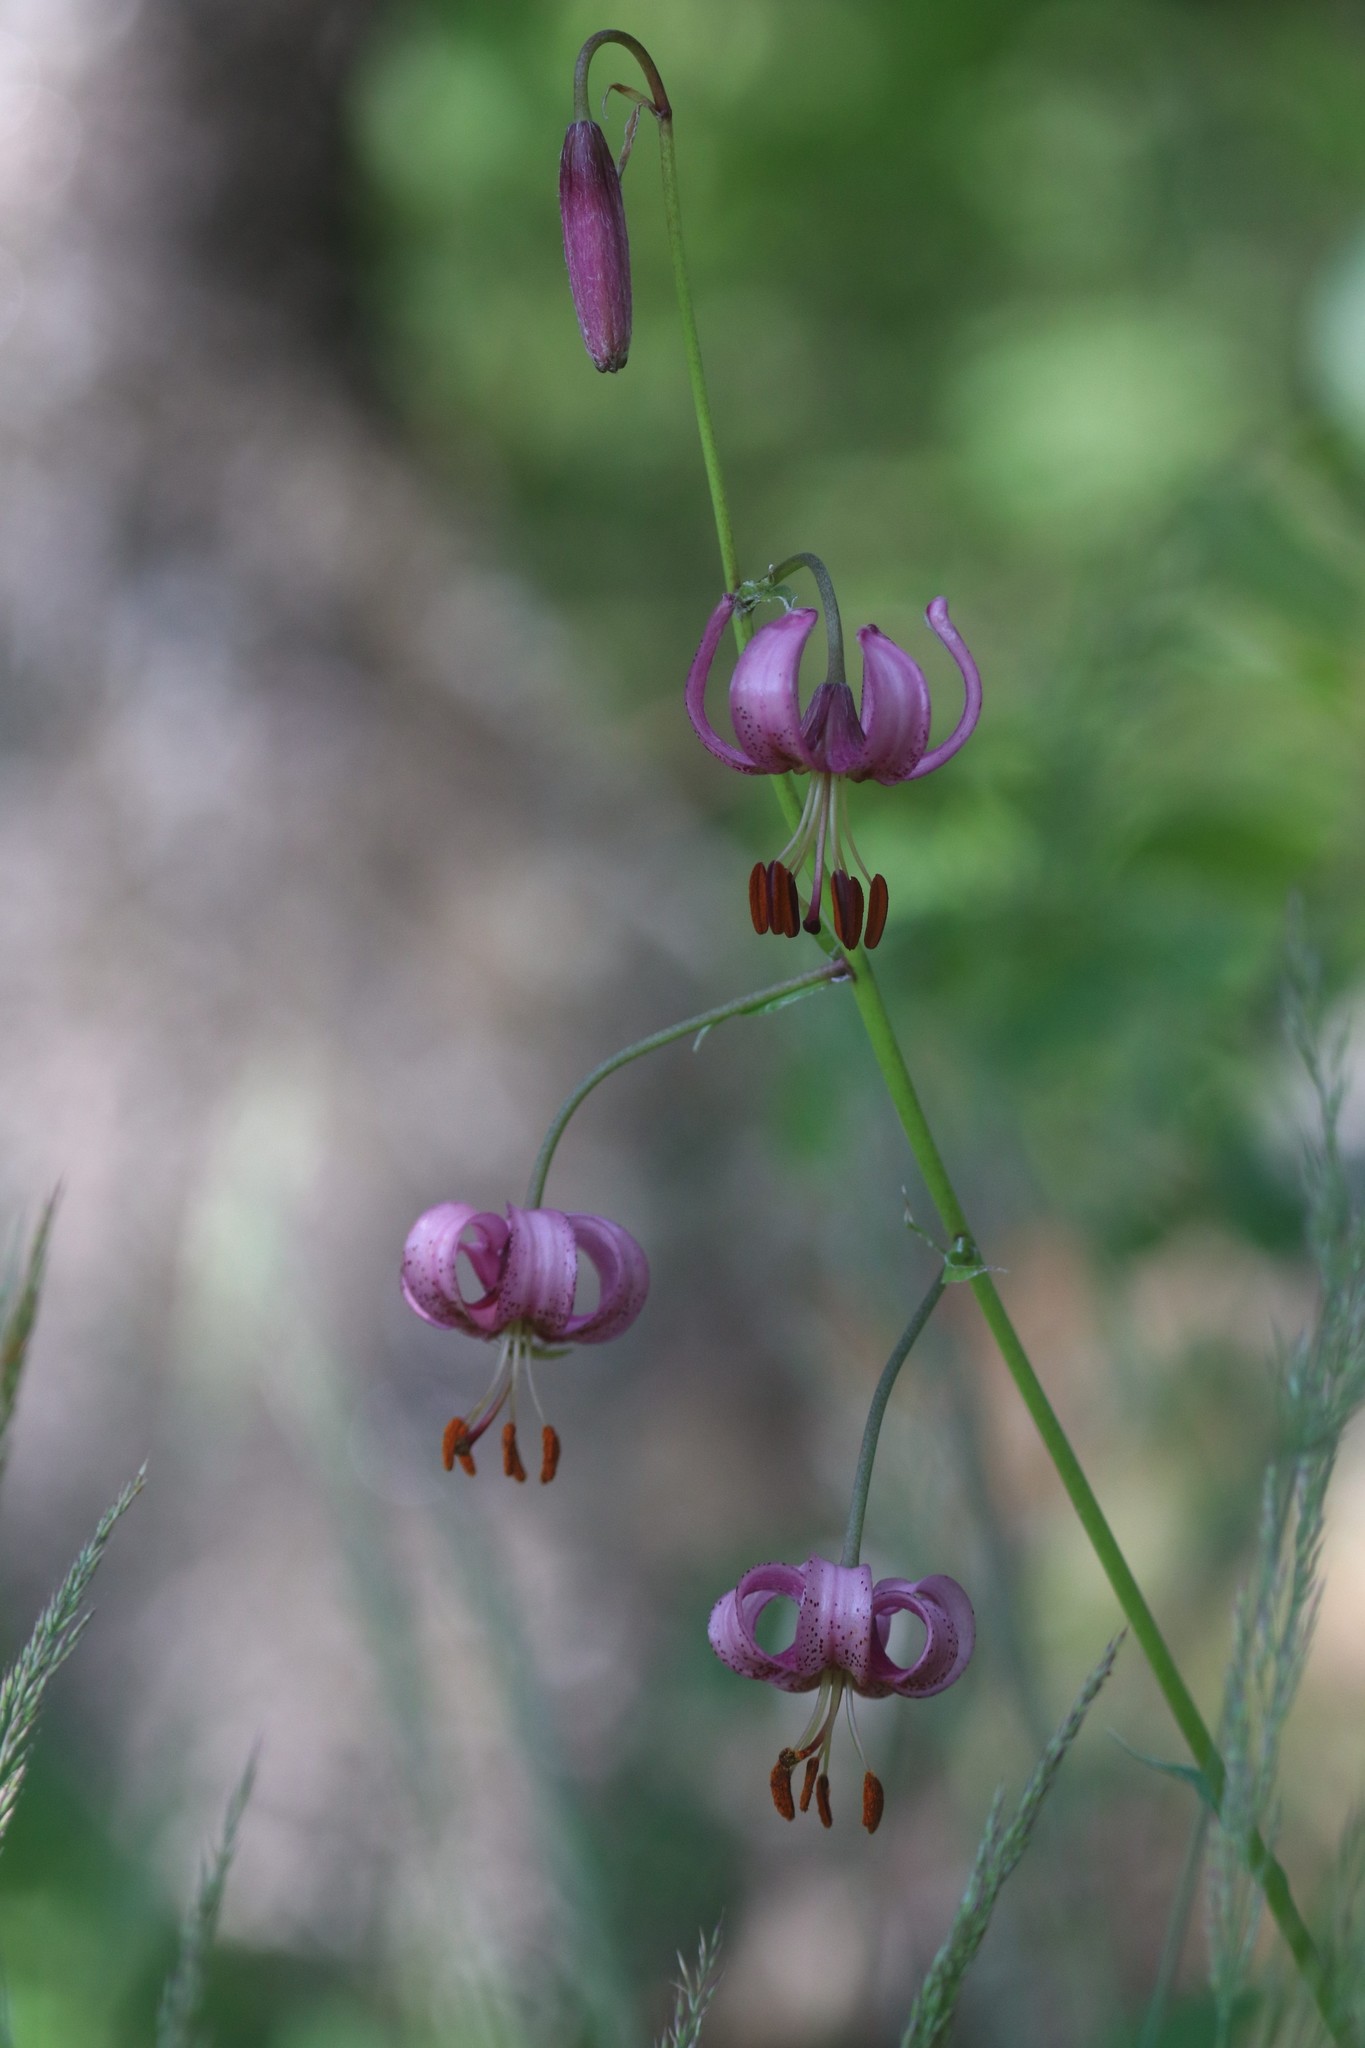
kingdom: Plantae
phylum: Tracheophyta
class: Liliopsida
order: Liliales
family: Liliaceae
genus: Lilium
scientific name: Lilium martagon
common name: Martagon lily
